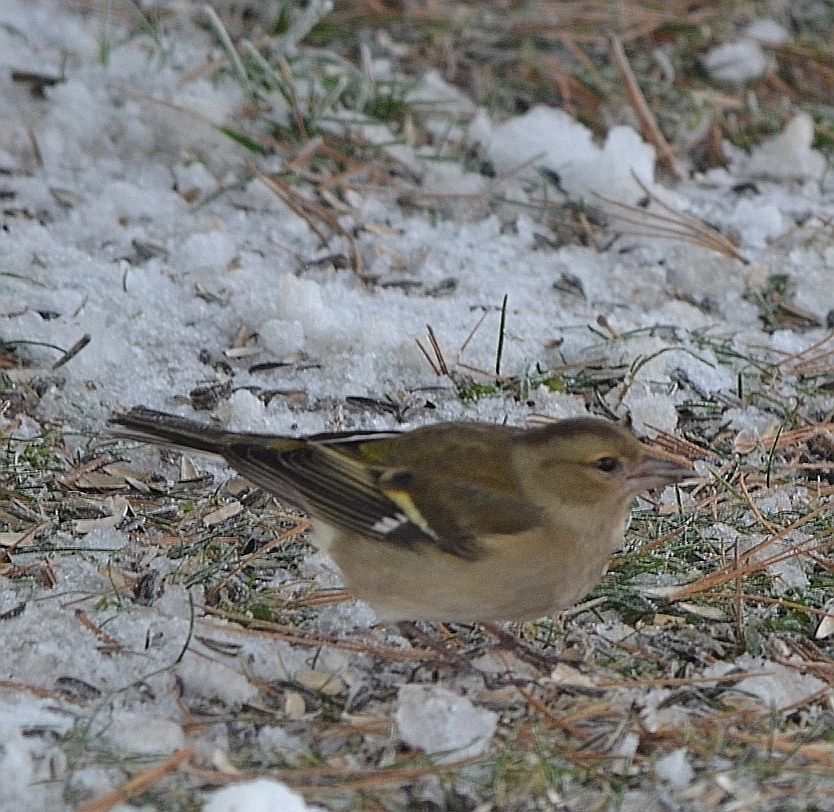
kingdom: Animalia
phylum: Chordata
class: Aves
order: Passeriformes
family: Fringillidae
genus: Fringilla
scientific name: Fringilla coelebs
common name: Common chaffinch
